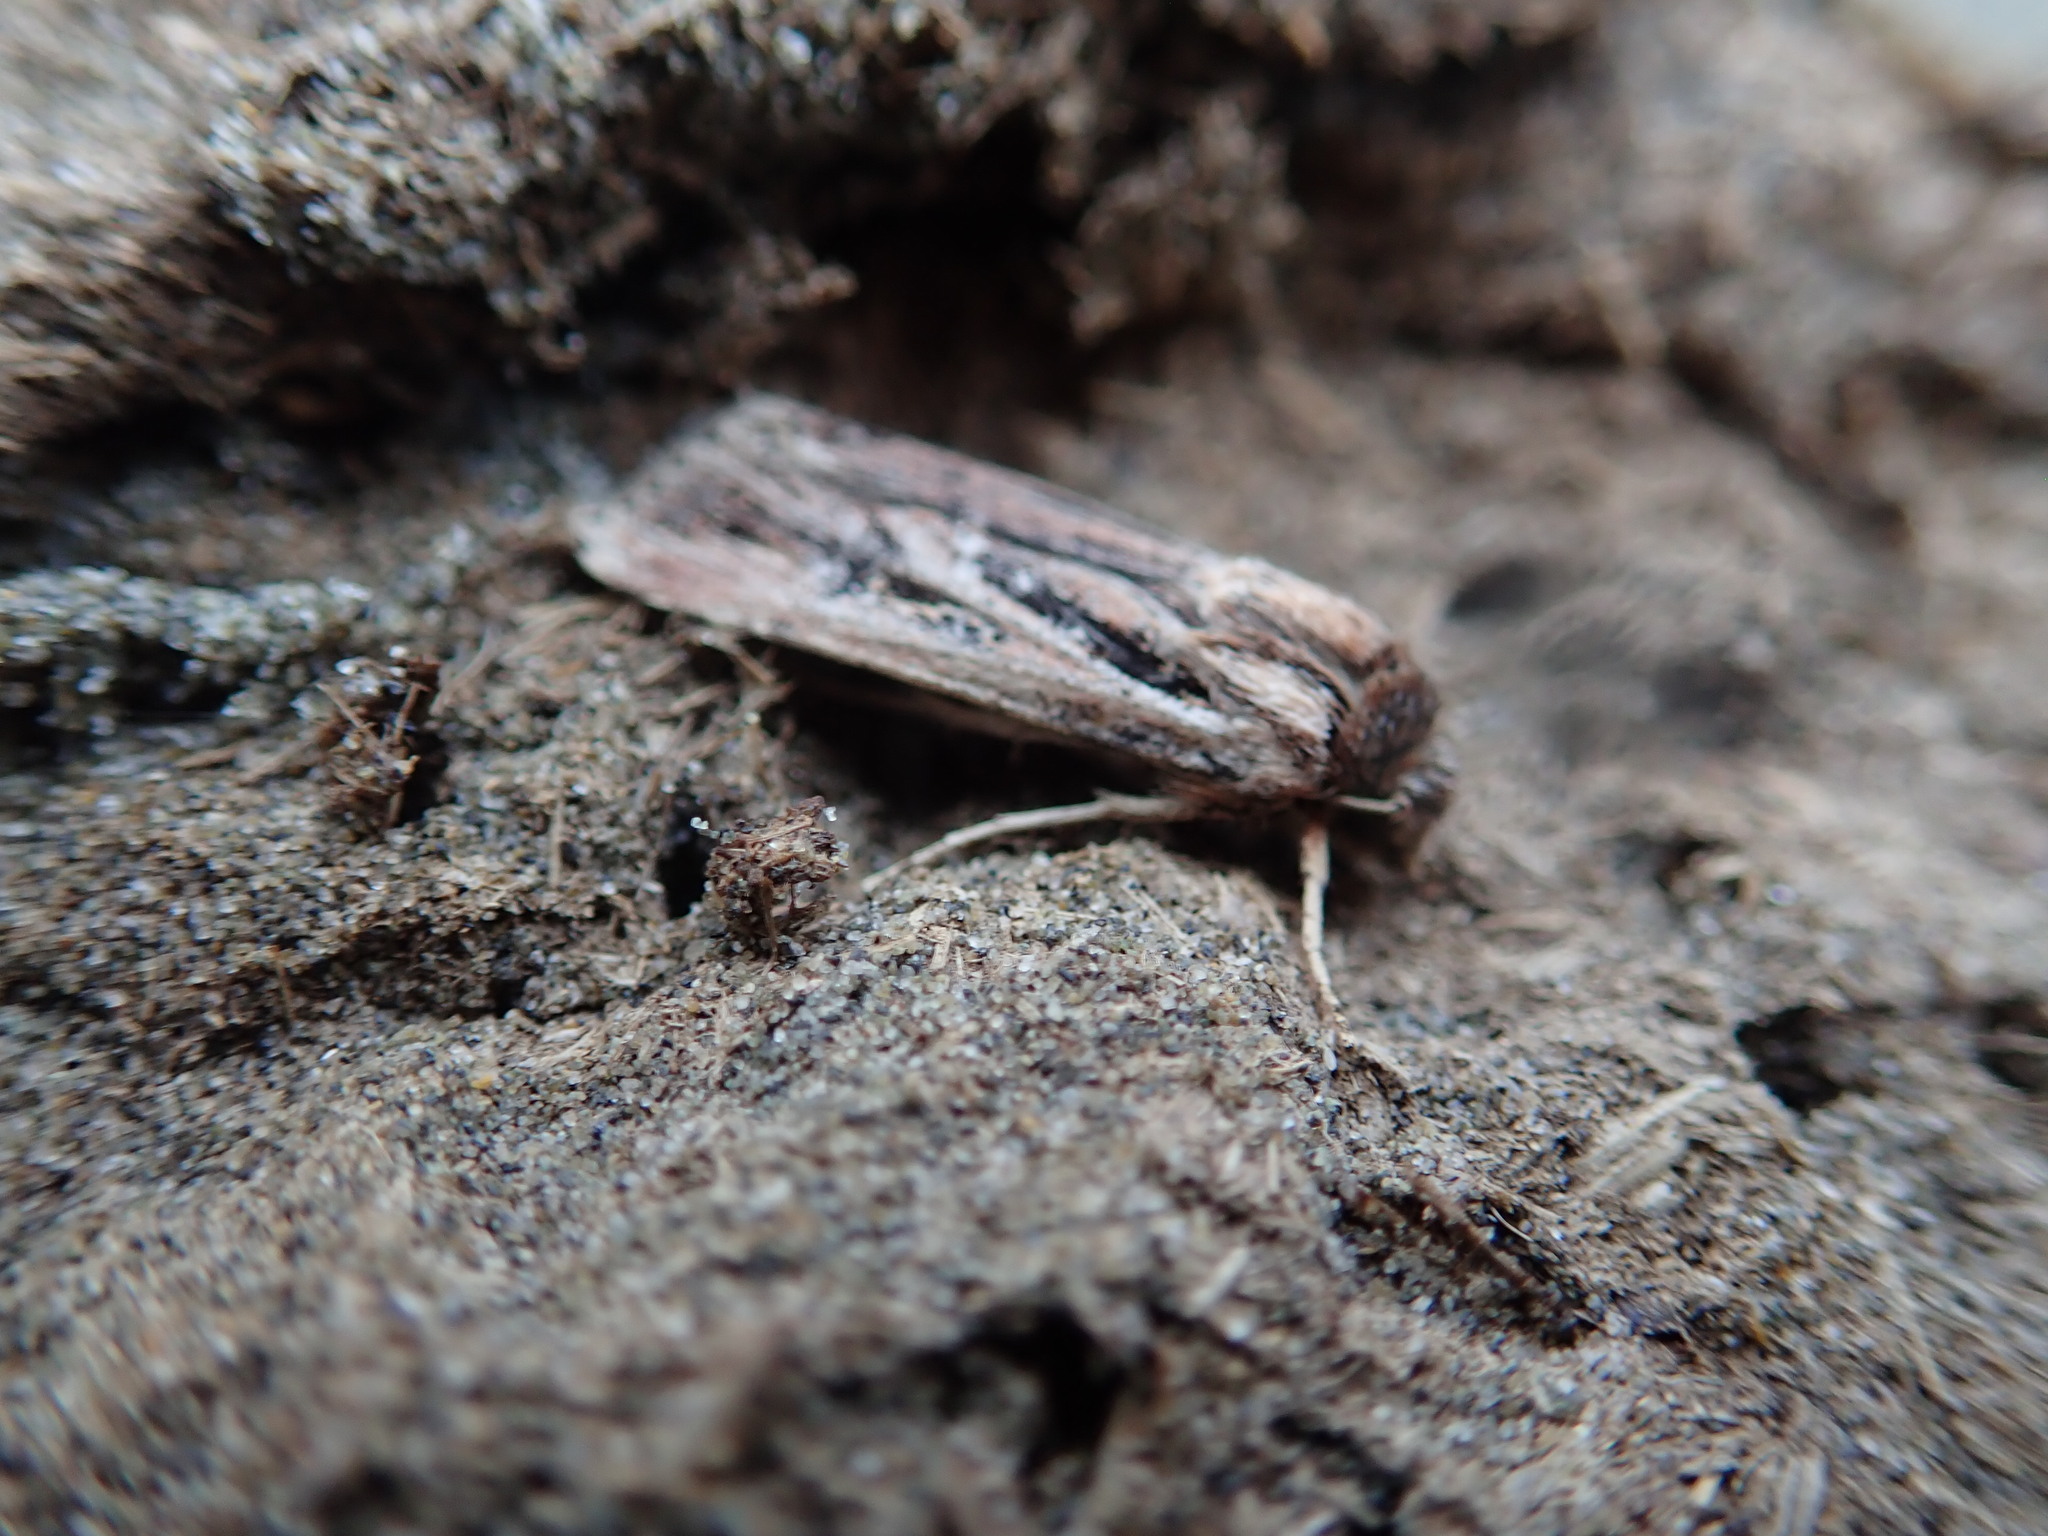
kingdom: Animalia
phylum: Arthropoda
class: Insecta
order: Lepidoptera
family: Noctuidae
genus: Agrotis
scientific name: Agrotis innominata
